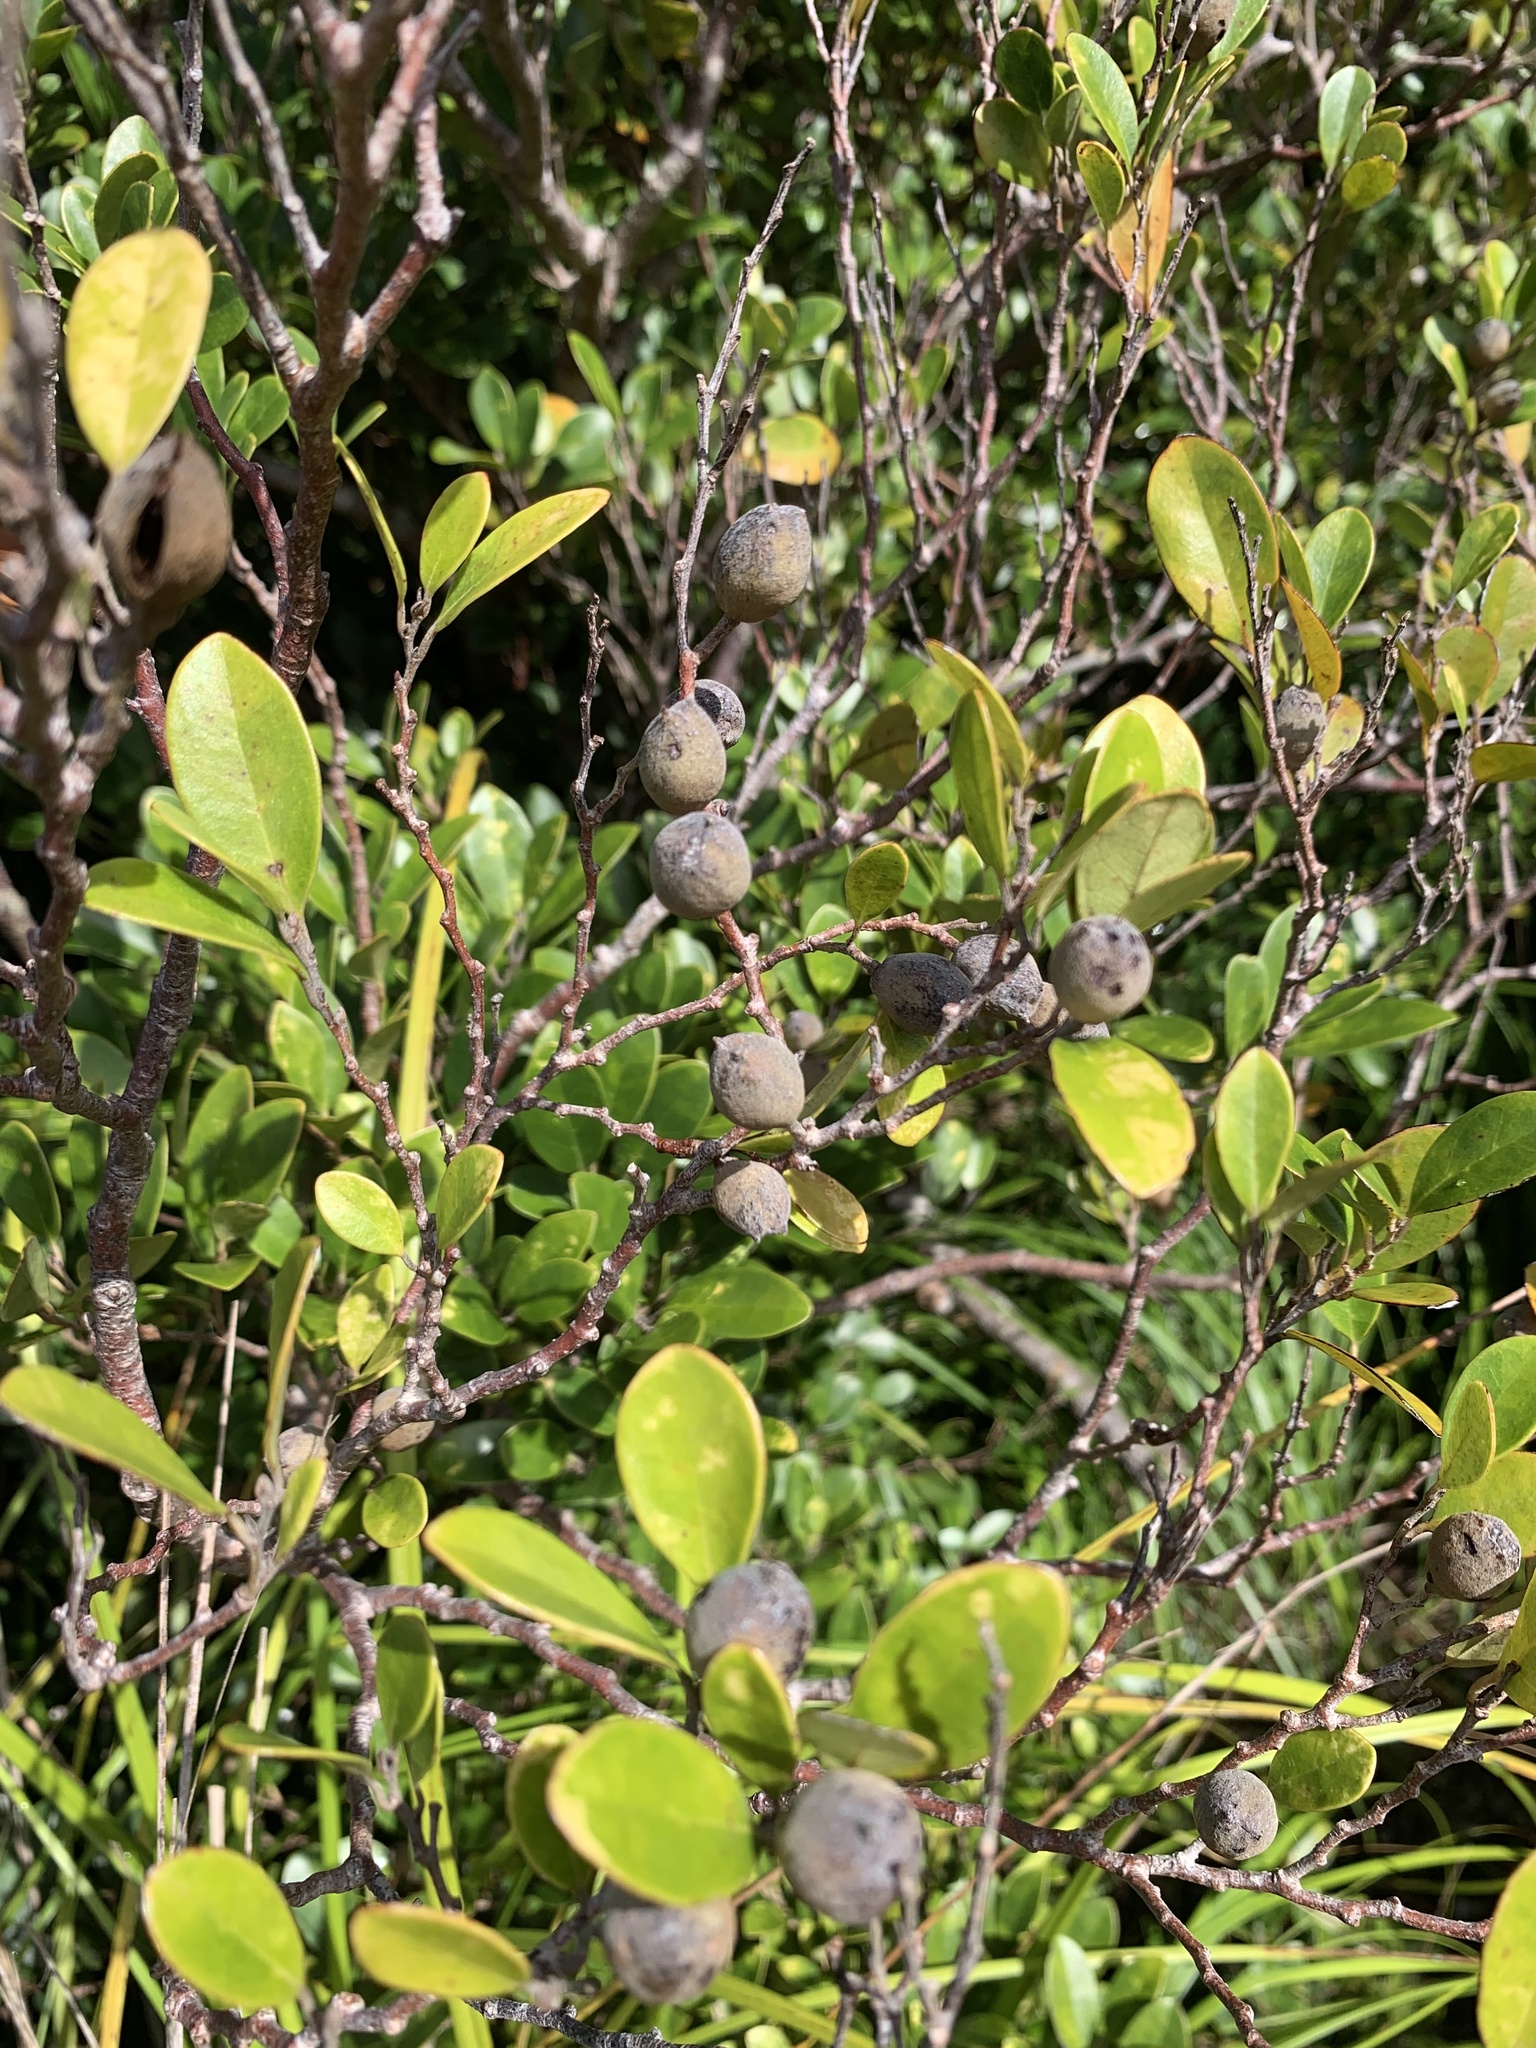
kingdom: Plantae
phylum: Tracheophyta
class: Magnoliopsida
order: Saxifragales
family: Hamamelidaceae
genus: Distylium
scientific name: Distylium lepidotum
